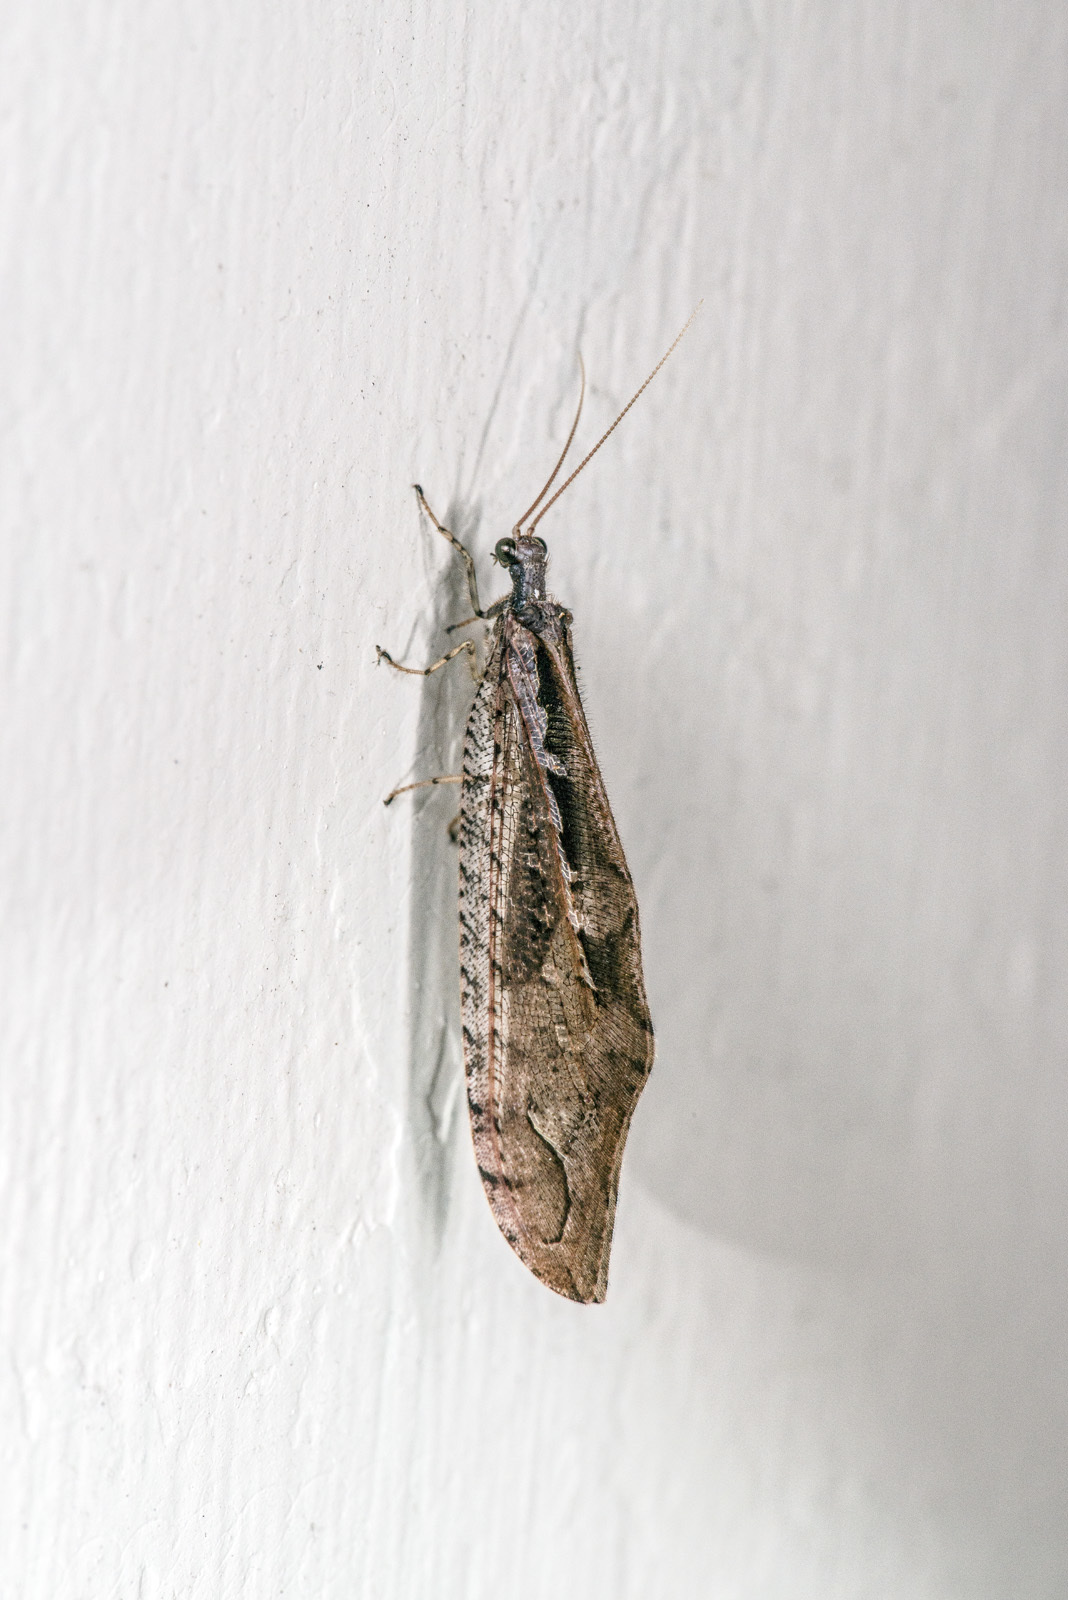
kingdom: Animalia
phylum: Arthropoda
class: Insecta
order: Neuroptera
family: Osmylidae
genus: Kempynus
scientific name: Kempynus incisus
